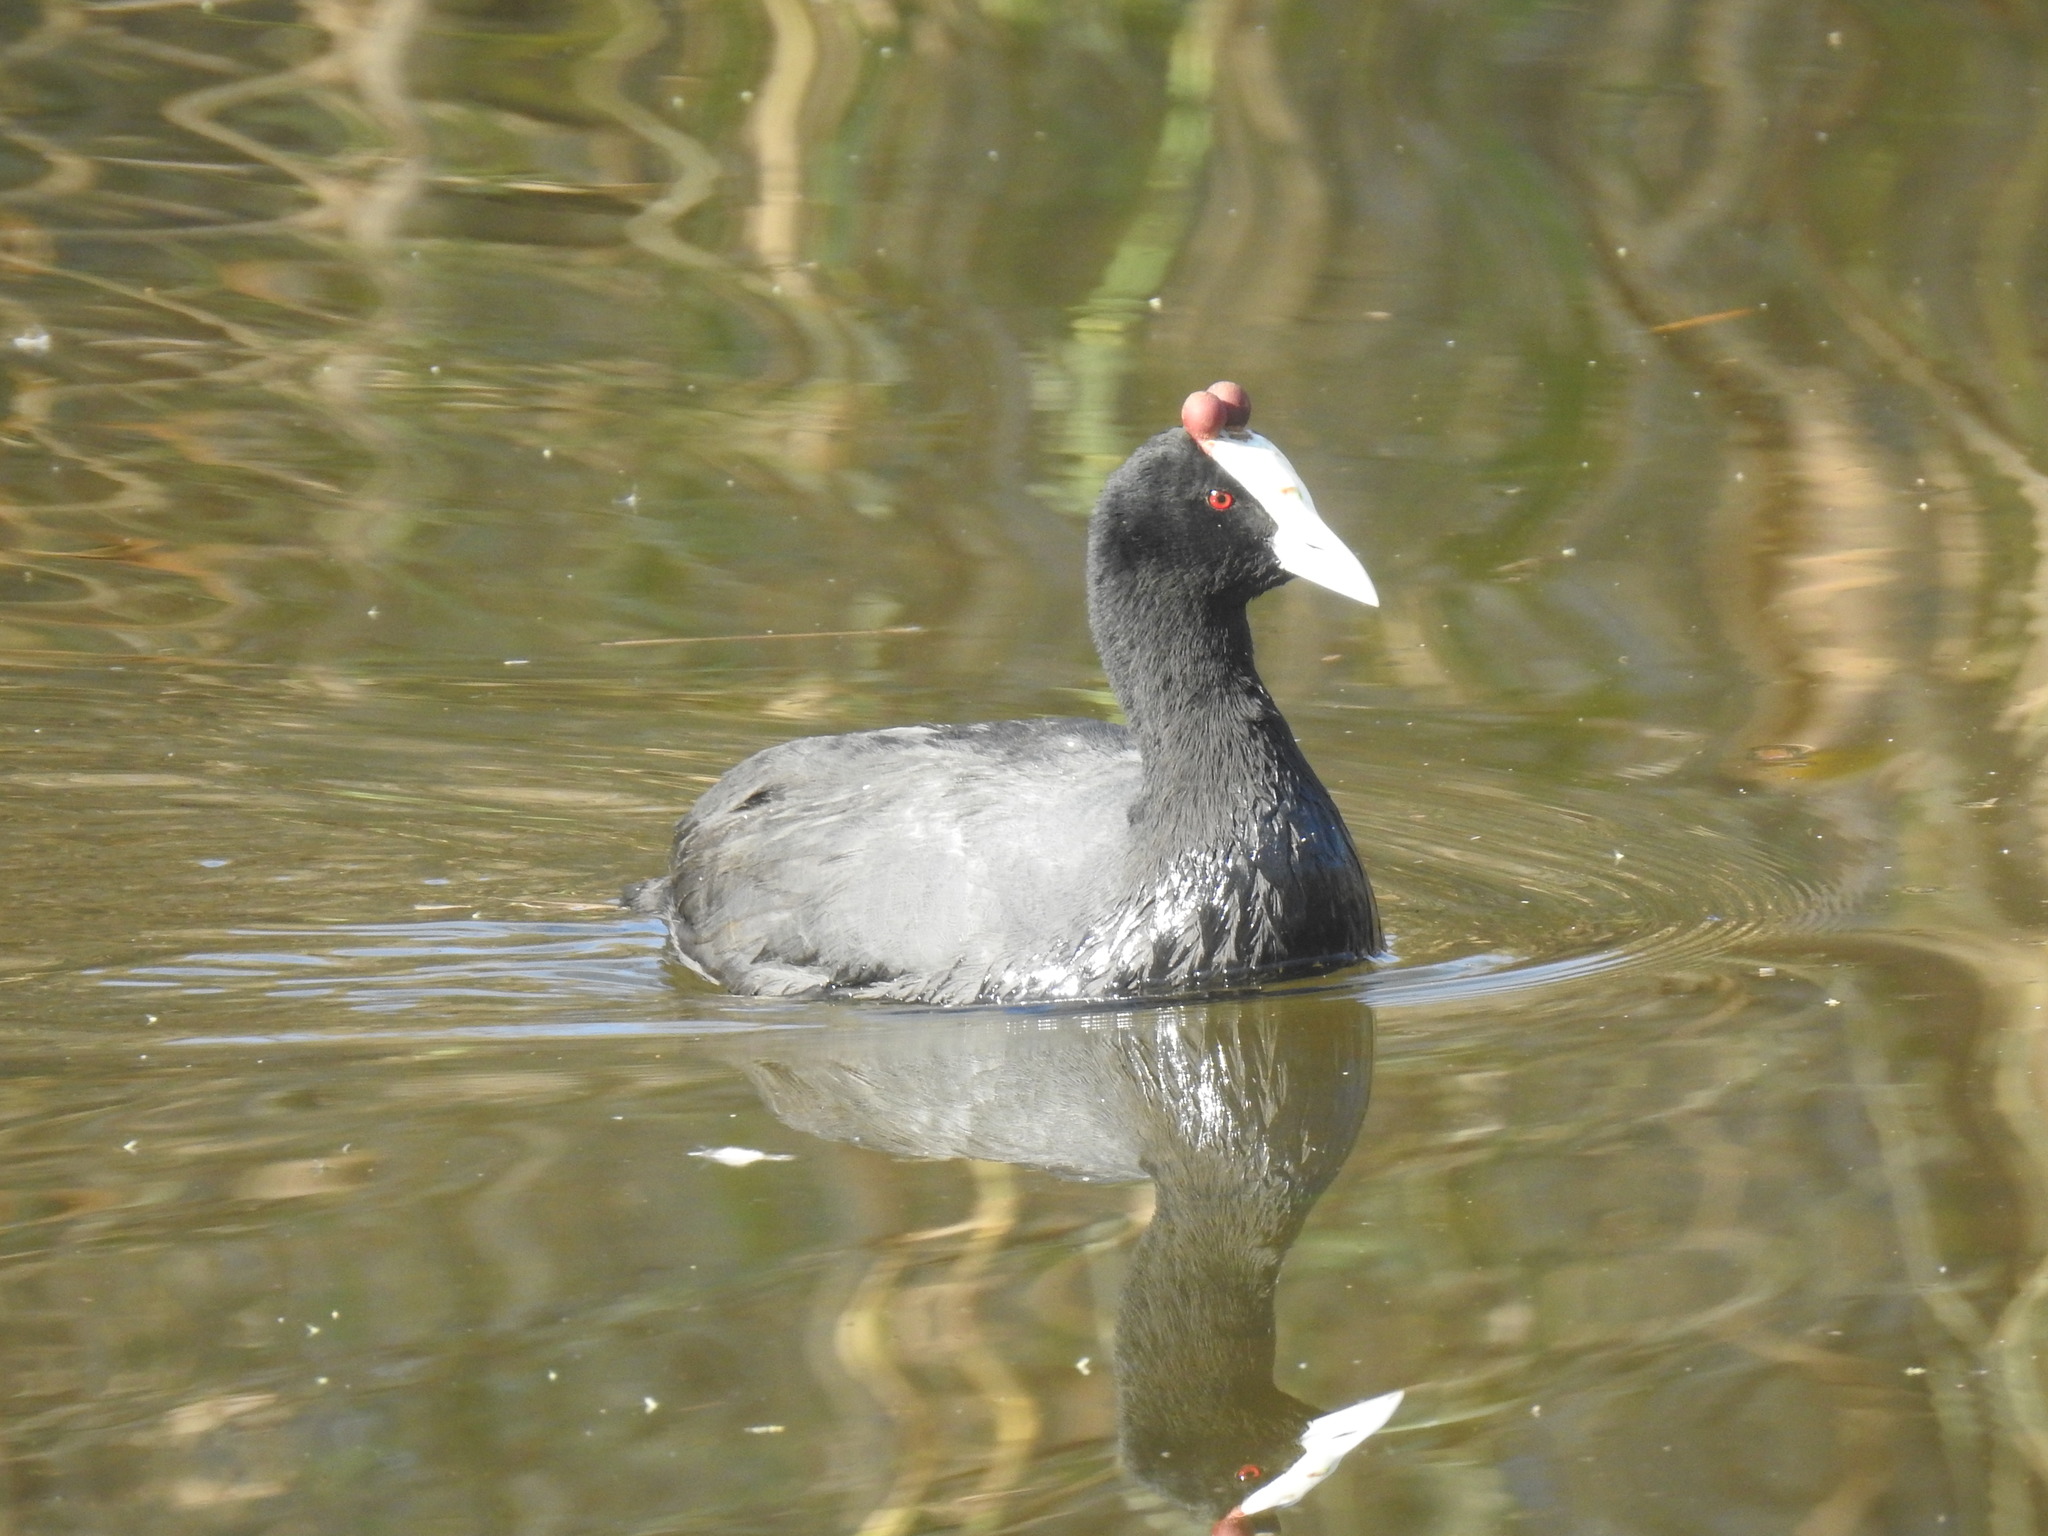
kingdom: Animalia
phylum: Chordata
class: Aves
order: Gruiformes
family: Rallidae
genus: Fulica
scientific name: Fulica cristata
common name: Red-knobbed coot
